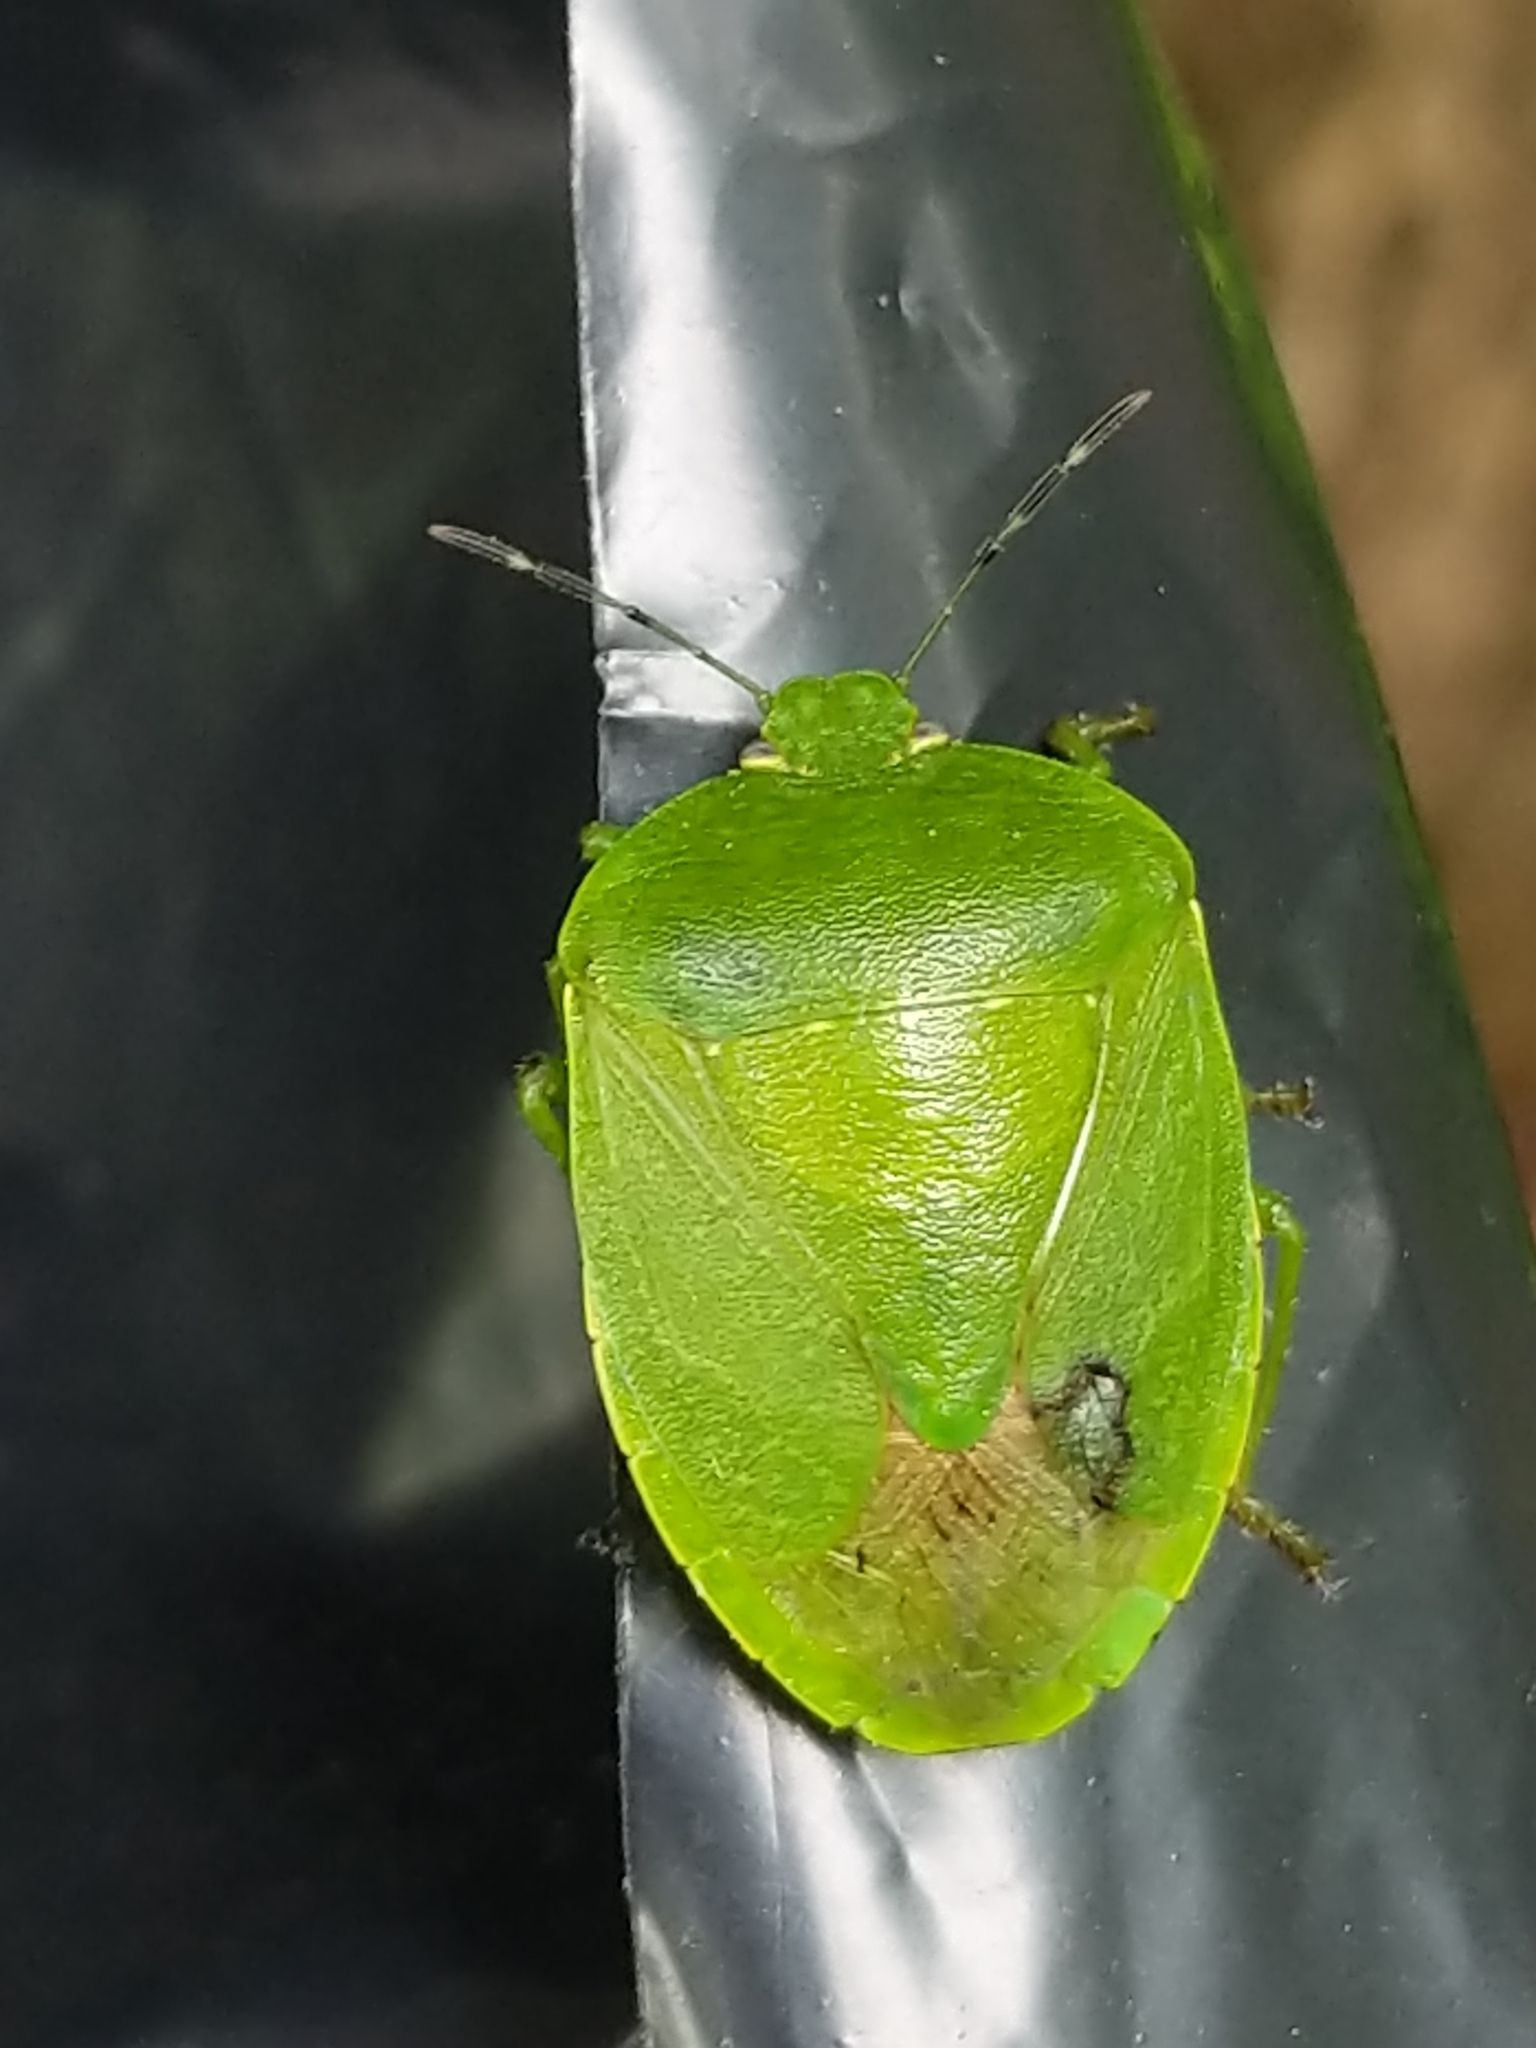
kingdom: Animalia
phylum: Arthropoda
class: Insecta
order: Hemiptera
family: Pentatomidae
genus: Chinavia
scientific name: Chinavia
